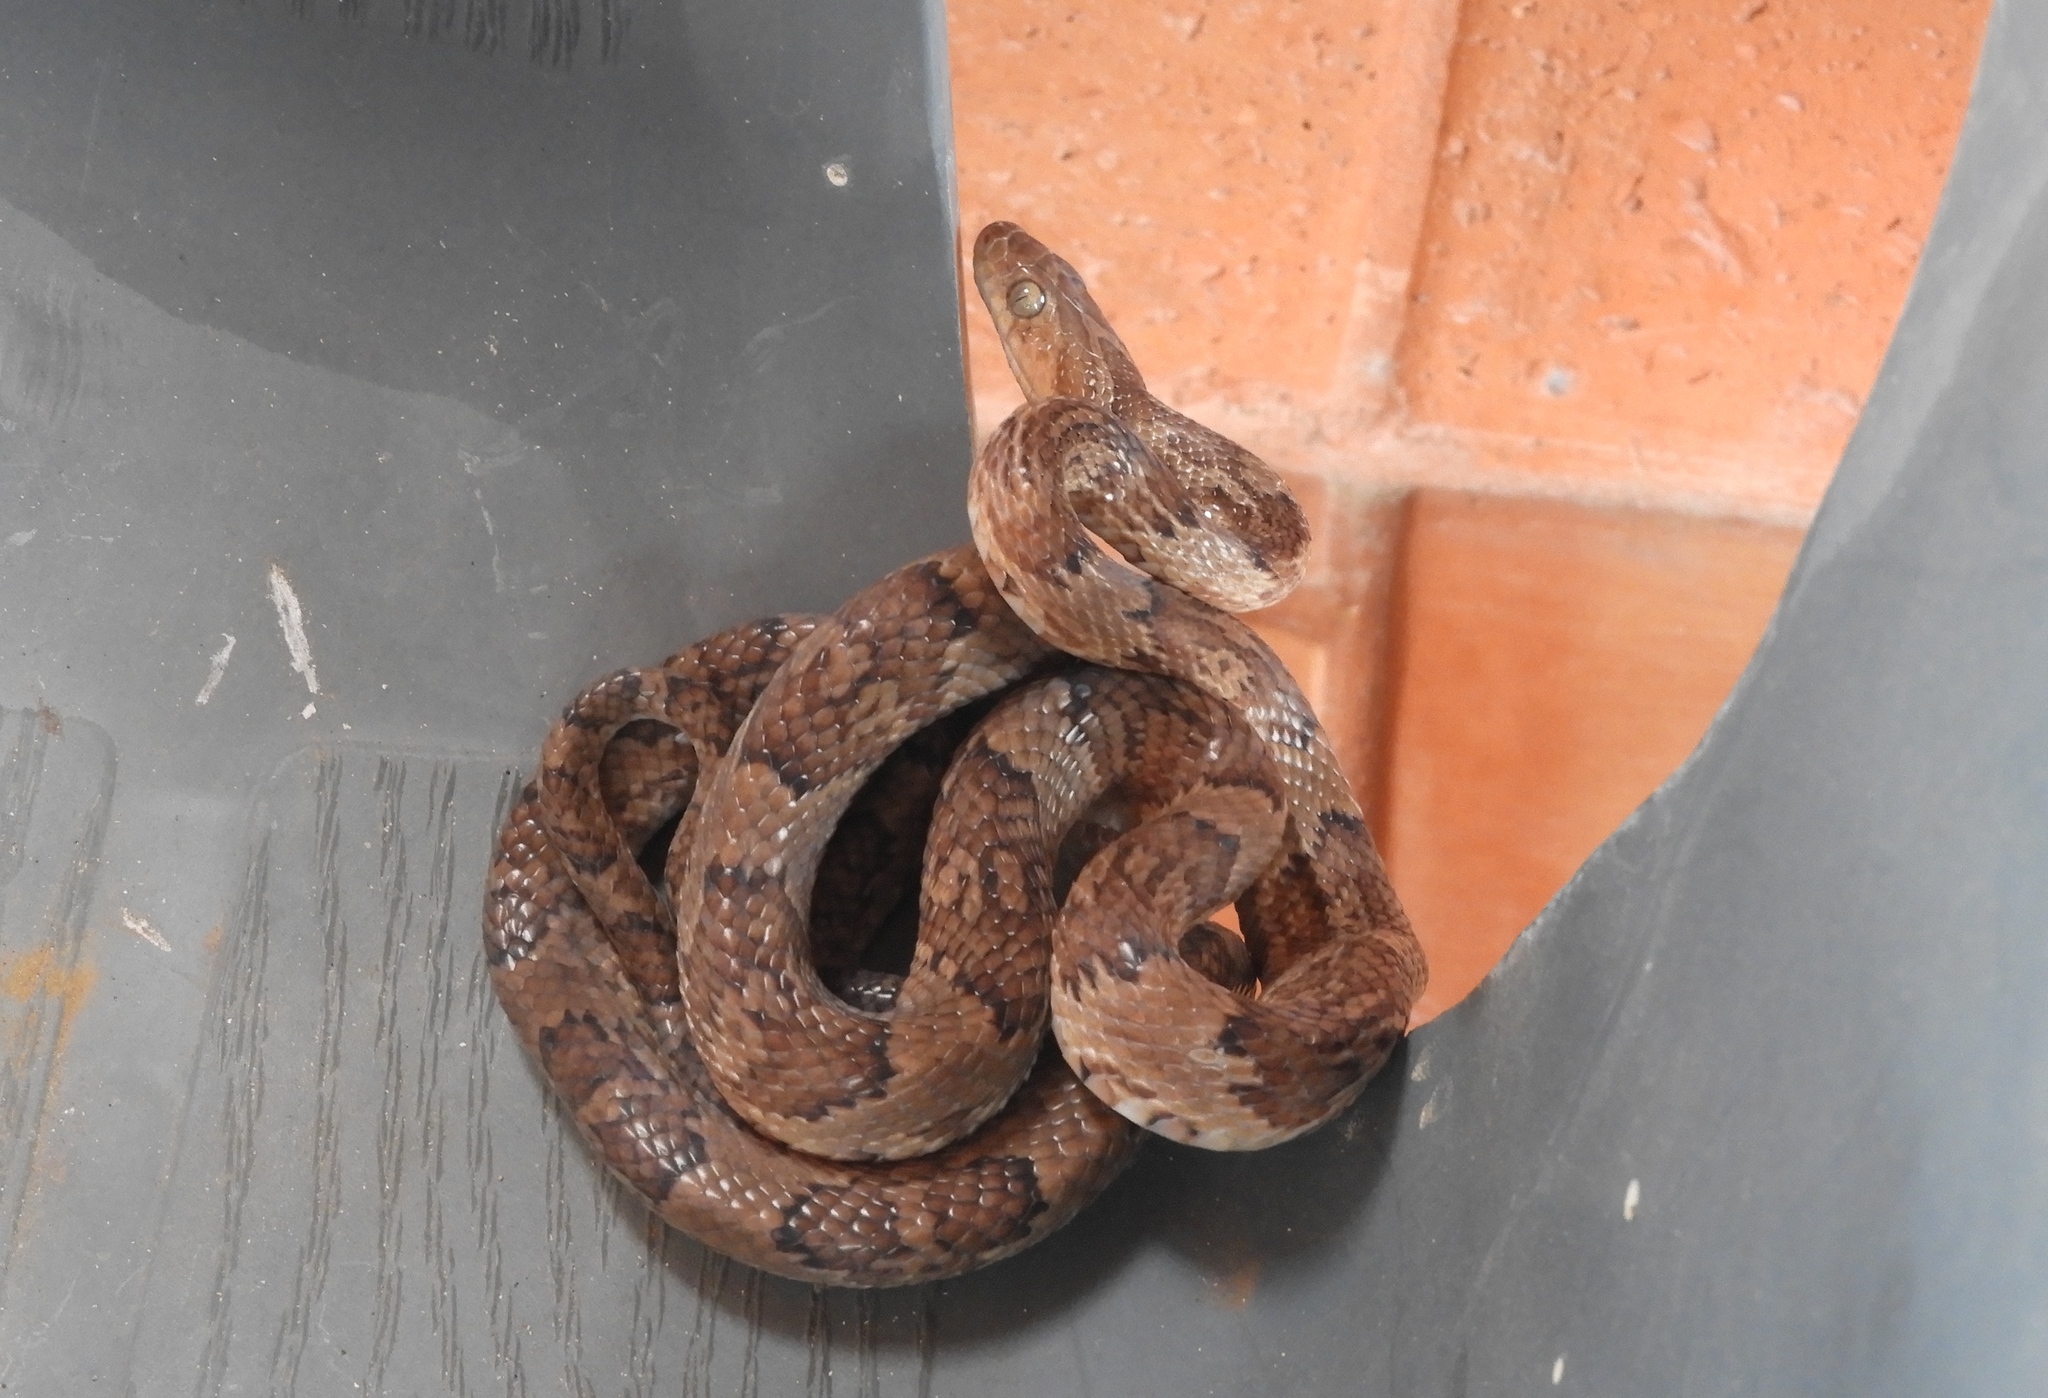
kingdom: Animalia
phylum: Chordata
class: Squamata
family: Colubridae
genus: Trimorphodon
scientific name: Trimorphodon paucimaculatus
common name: Sinaloan lyresnake
